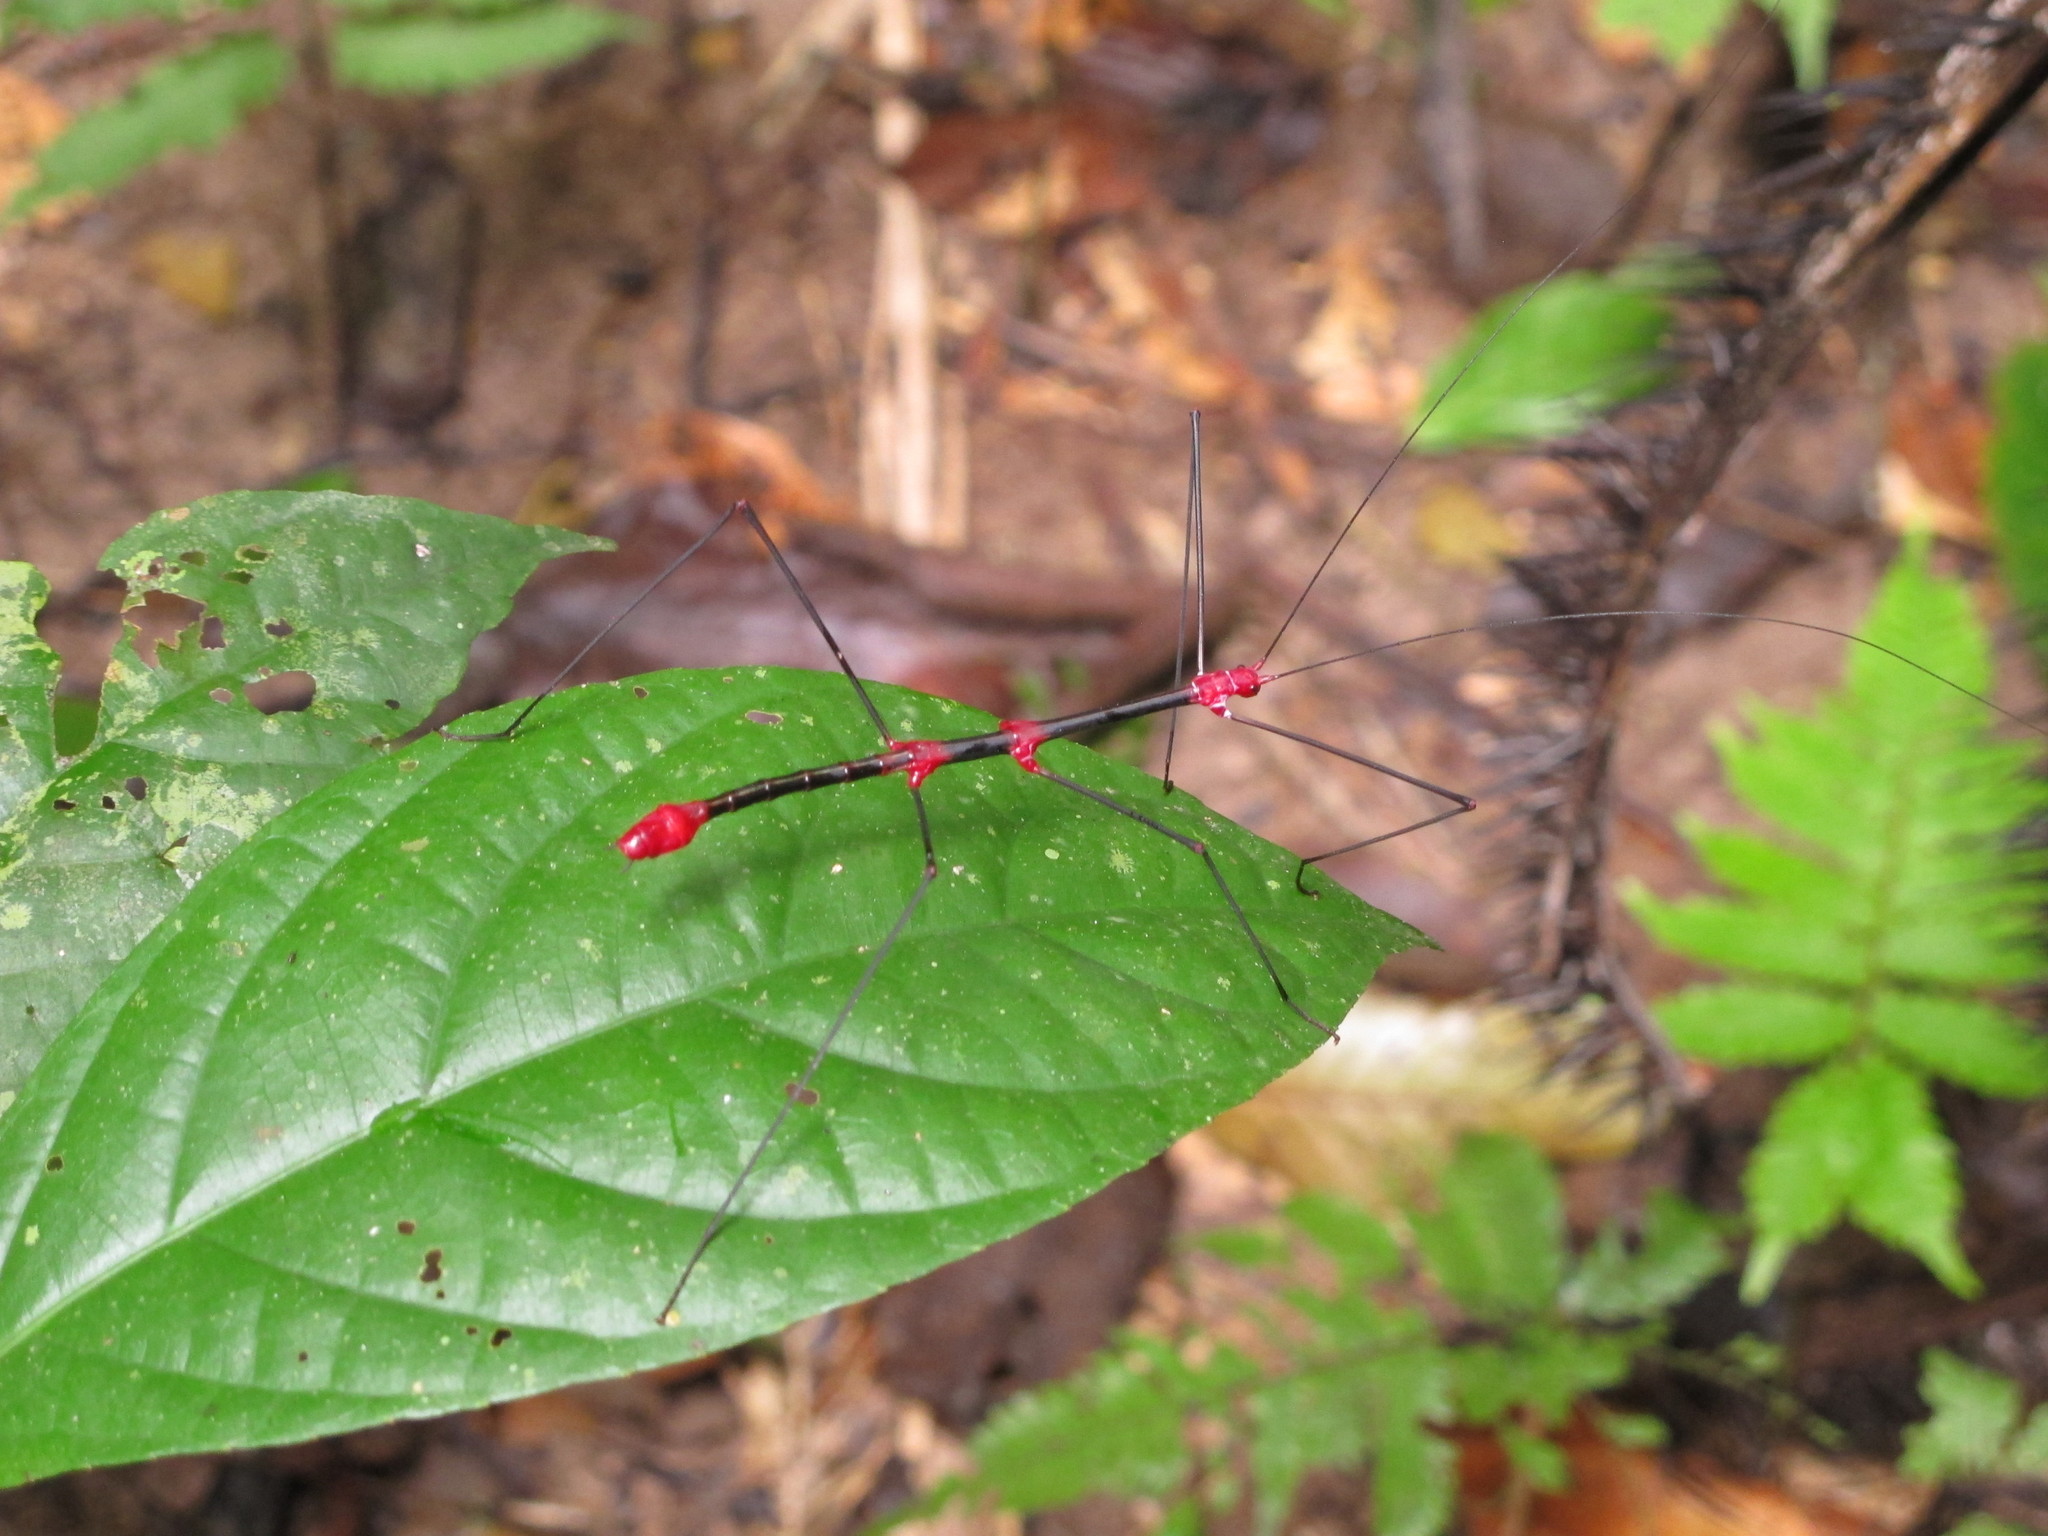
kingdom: Animalia
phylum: Arthropoda
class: Insecta
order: Phasmida
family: Diapheromeridae
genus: Oreophoetes
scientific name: Oreophoetes peruana
